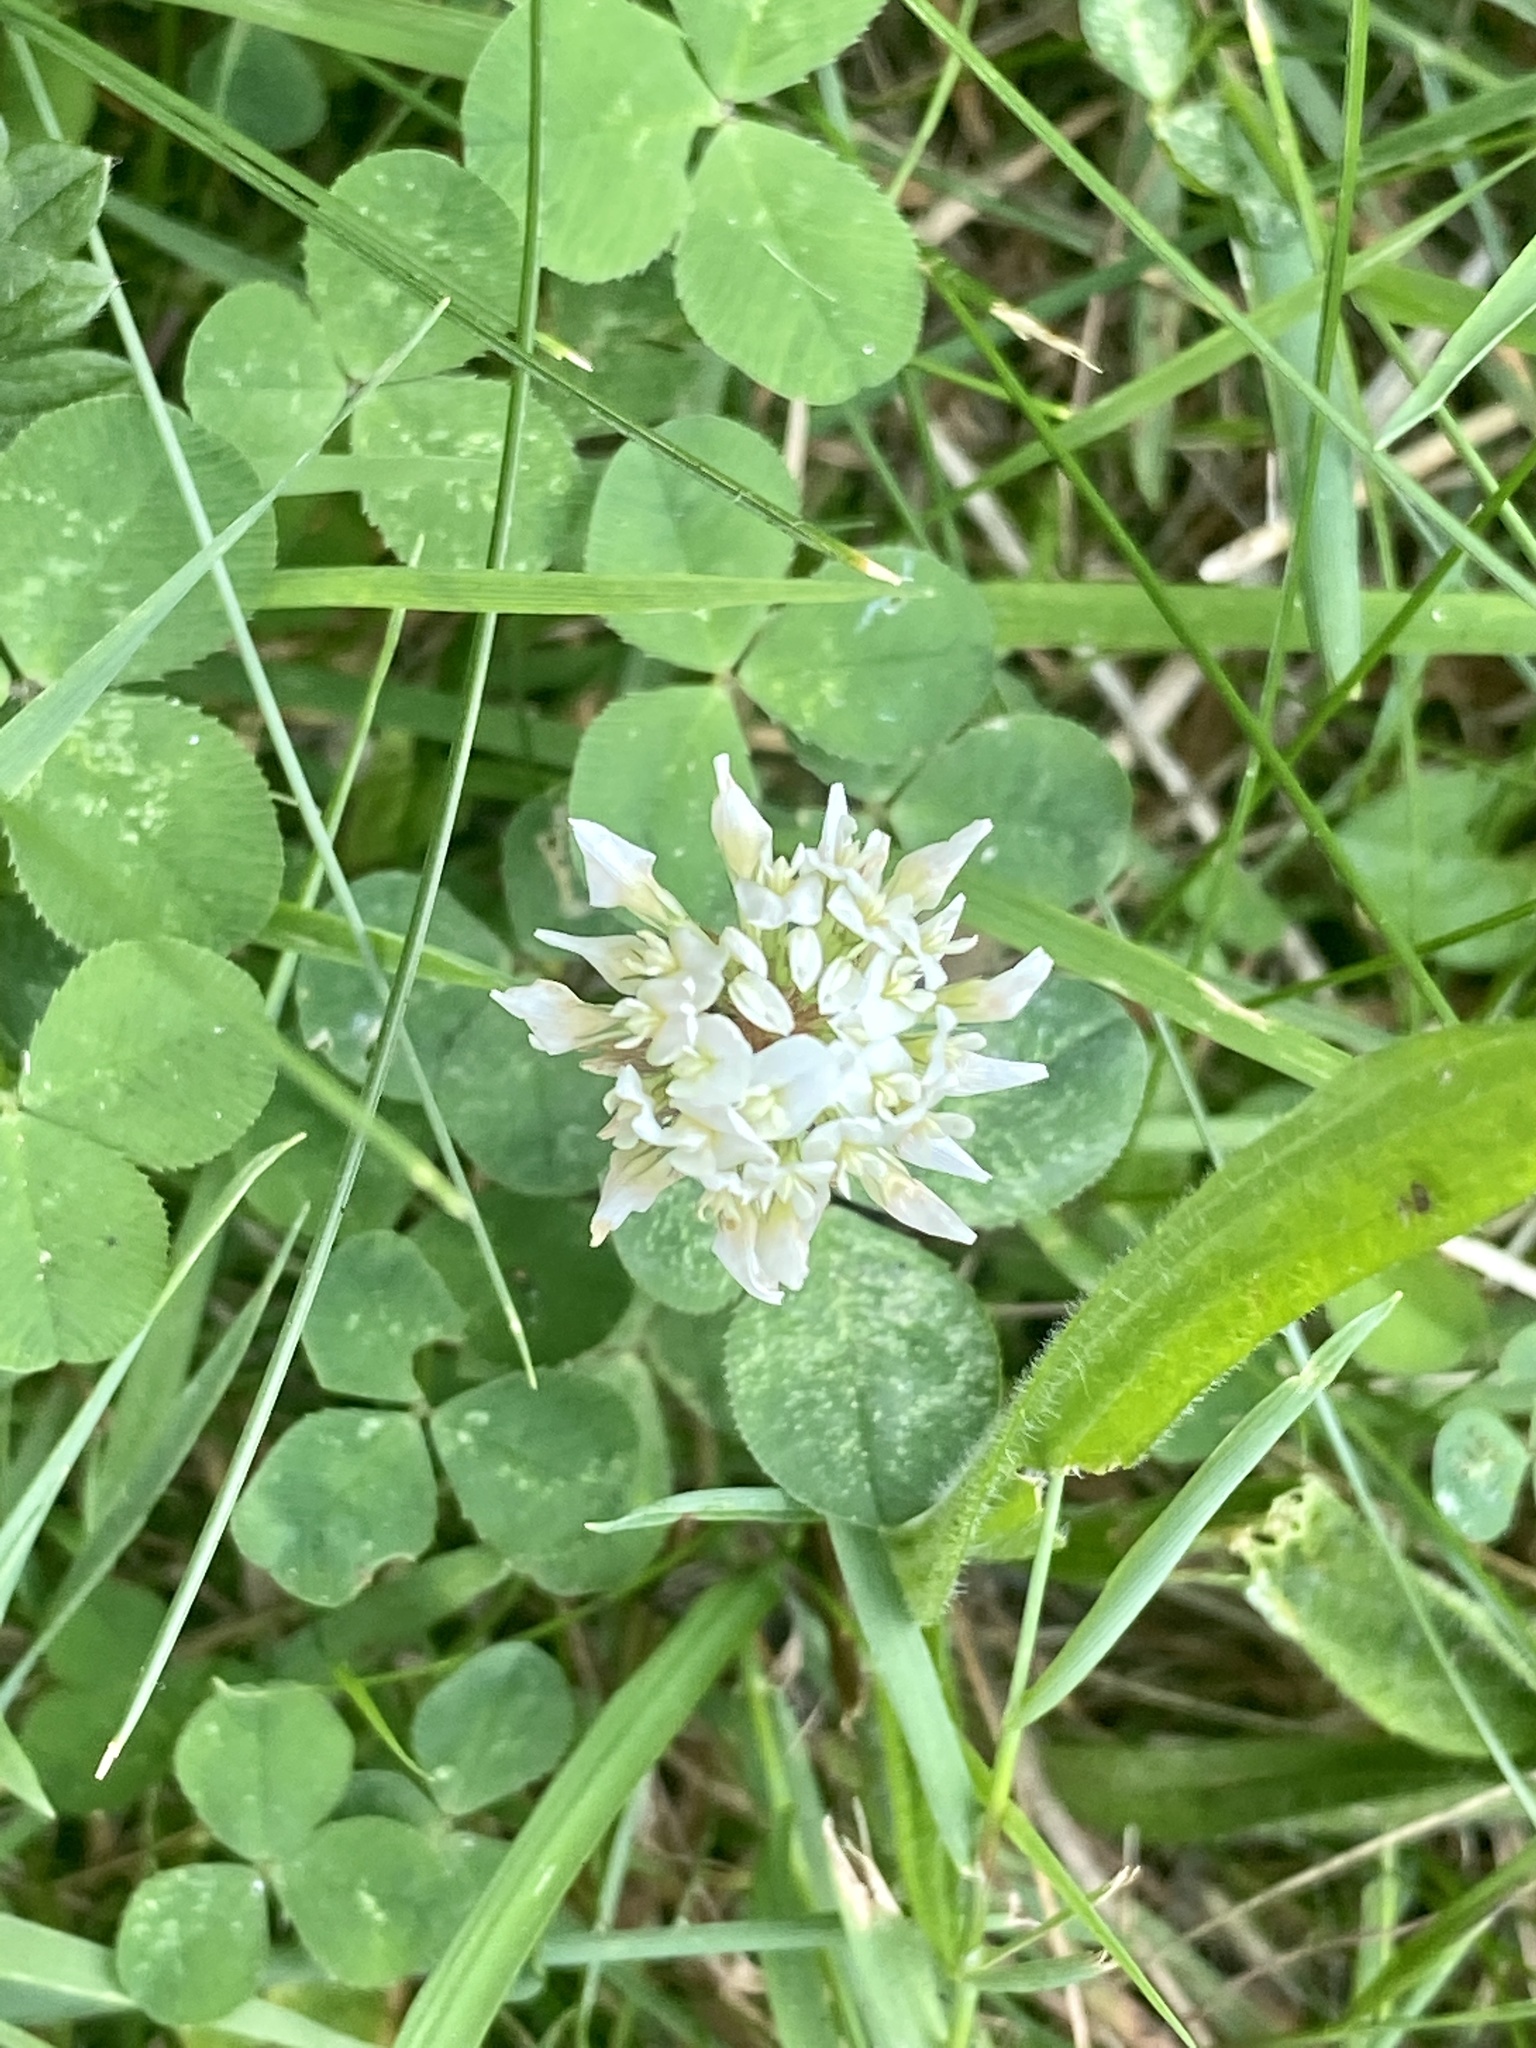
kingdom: Plantae
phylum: Tracheophyta
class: Magnoliopsida
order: Fabales
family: Fabaceae
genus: Trifolium
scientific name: Trifolium repens
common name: White clover
